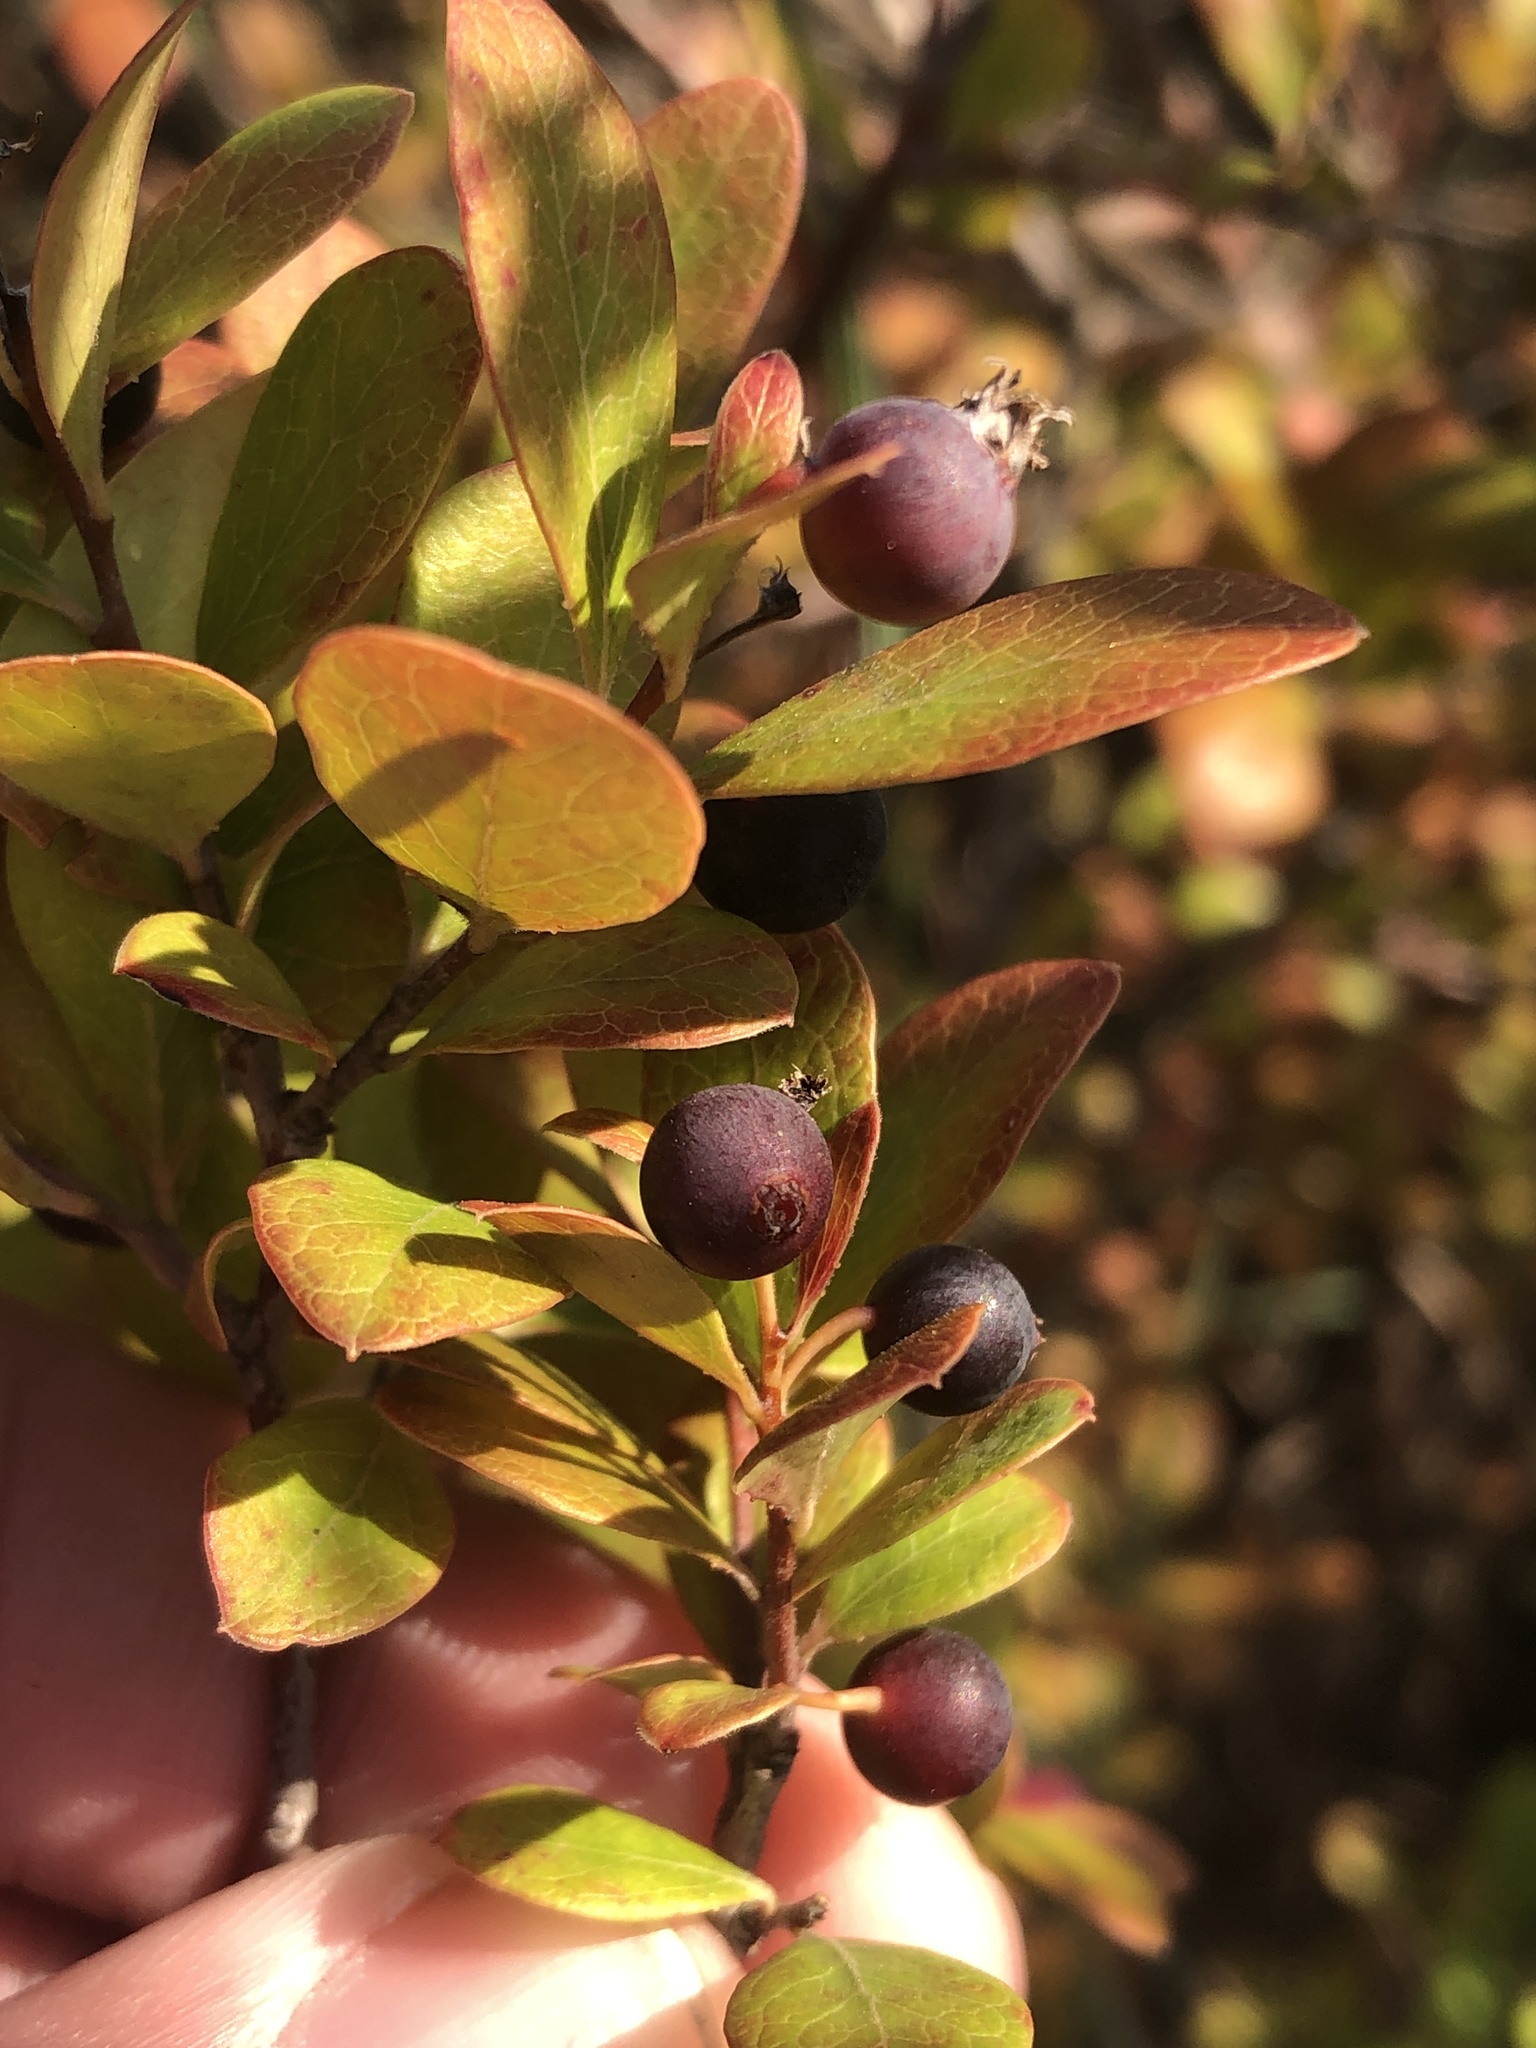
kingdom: Plantae
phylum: Tracheophyta
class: Magnoliopsida
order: Ericales
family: Ericaceae
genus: Vaccinium
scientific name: Vaccinium arboreum
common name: Farkleberry
